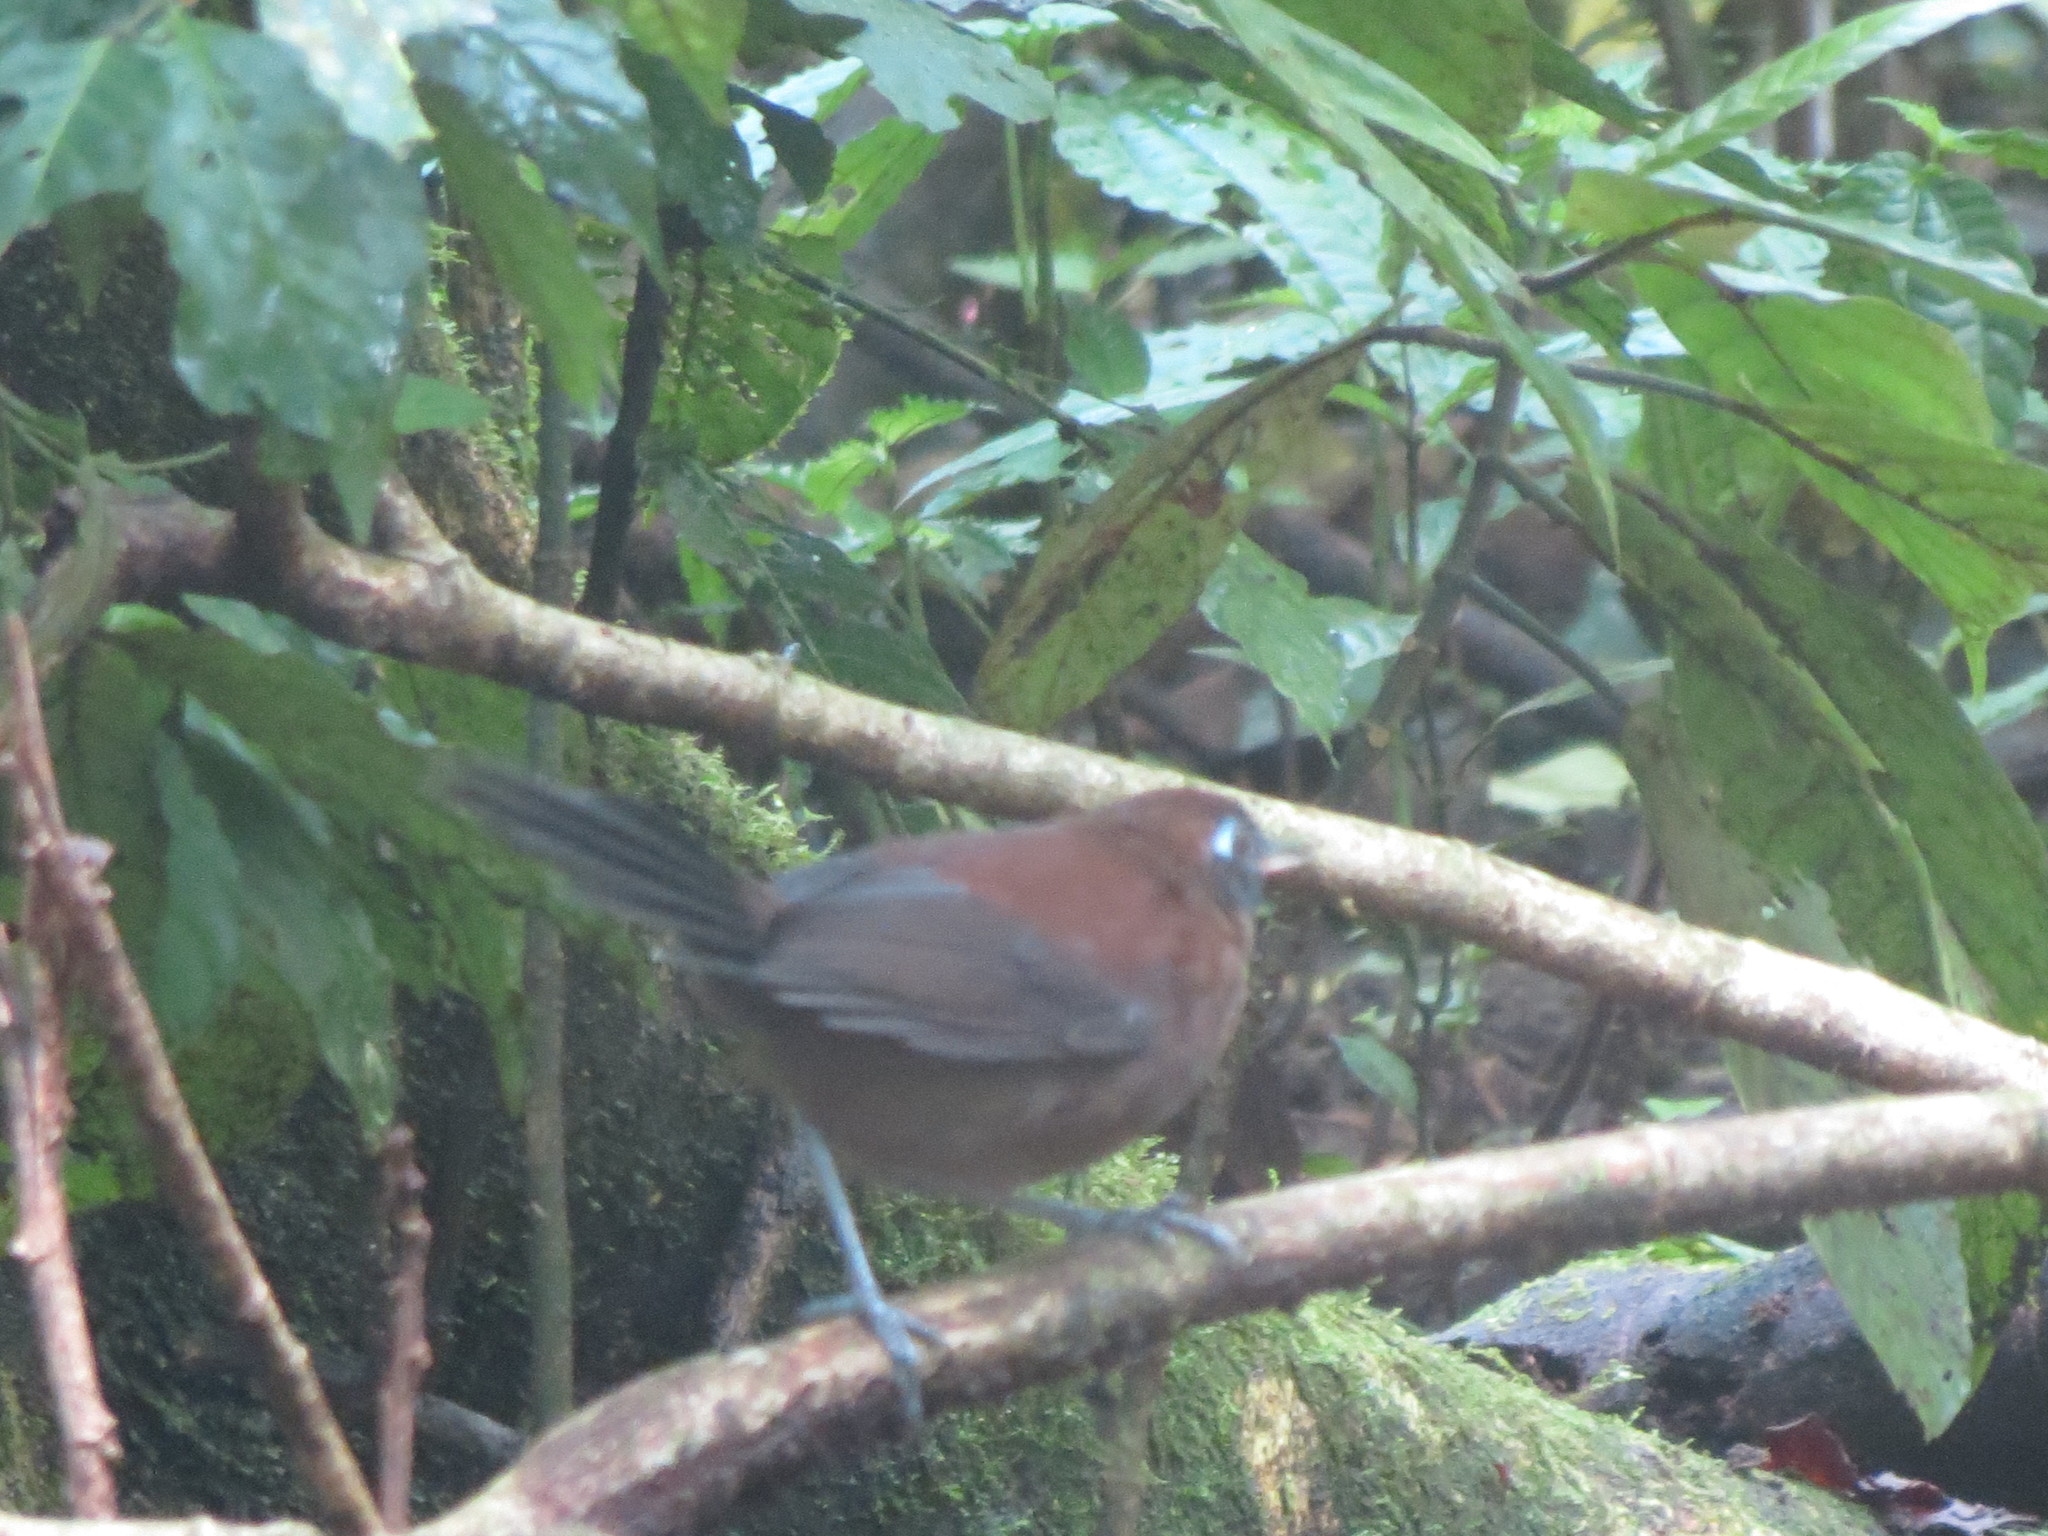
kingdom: Animalia
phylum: Chordata
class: Aves
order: Passeriformes
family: Thamnophilidae
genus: Hafferia
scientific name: Hafferia zeledoni
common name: Zeledon's antbird
